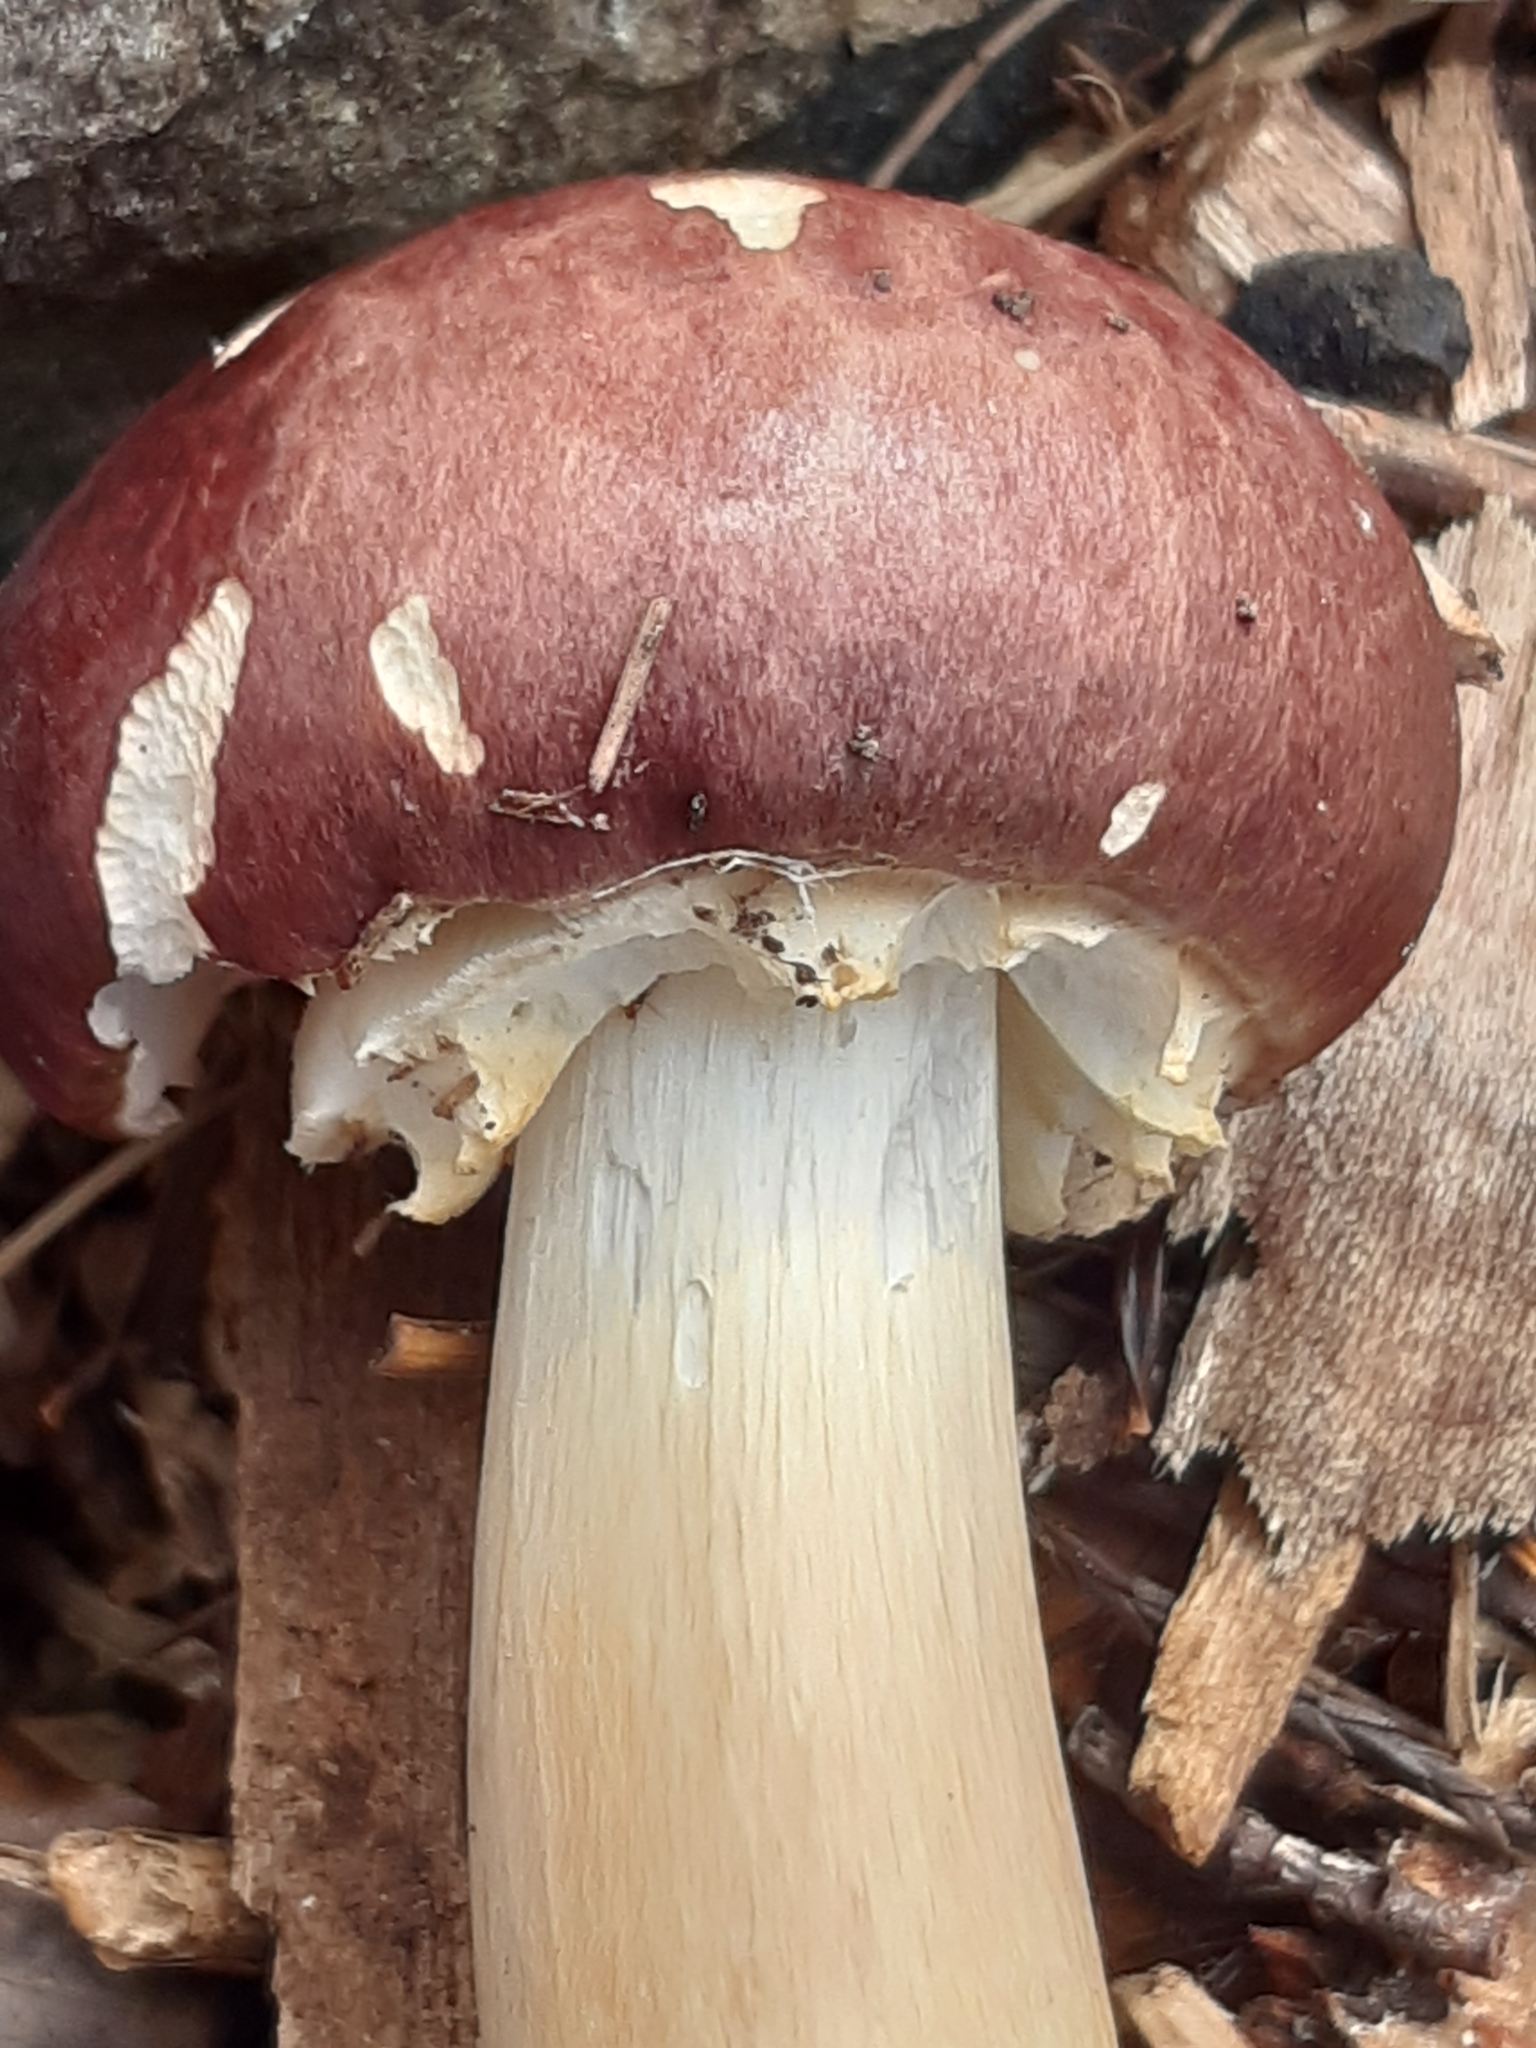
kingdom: Fungi
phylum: Basidiomycota
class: Agaricomycetes
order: Agaricales
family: Strophariaceae
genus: Stropharia
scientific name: Stropharia rugosoannulata
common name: Wine roundhead
